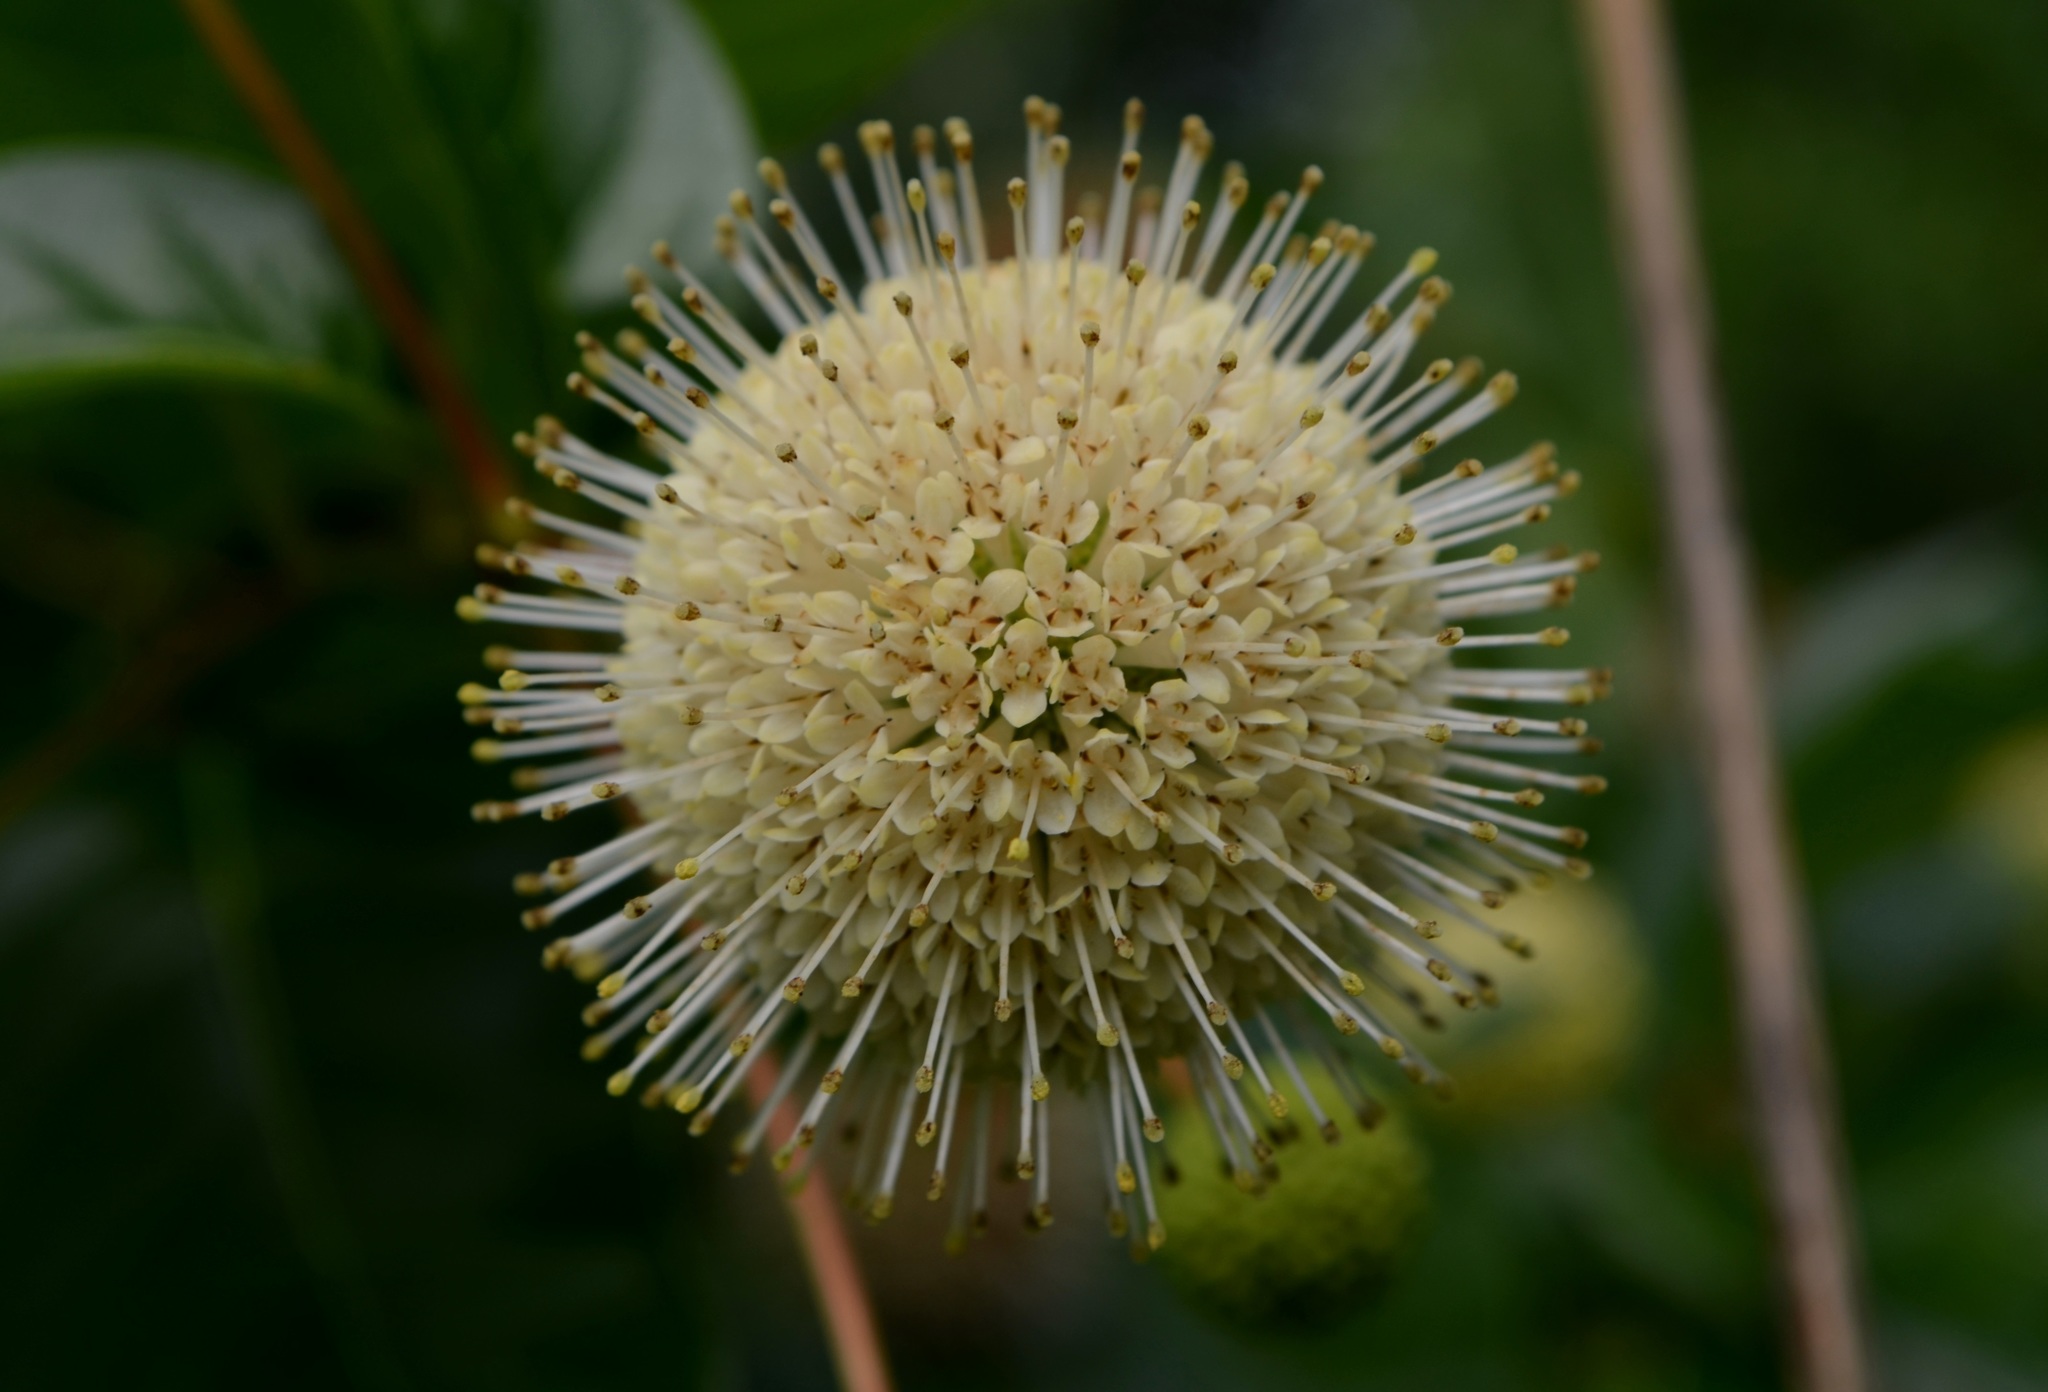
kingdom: Plantae
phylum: Tracheophyta
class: Magnoliopsida
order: Gentianales
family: Rubiaceae
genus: Cephalanthus
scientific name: Cephalanthus occidentalis
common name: Button-willow
